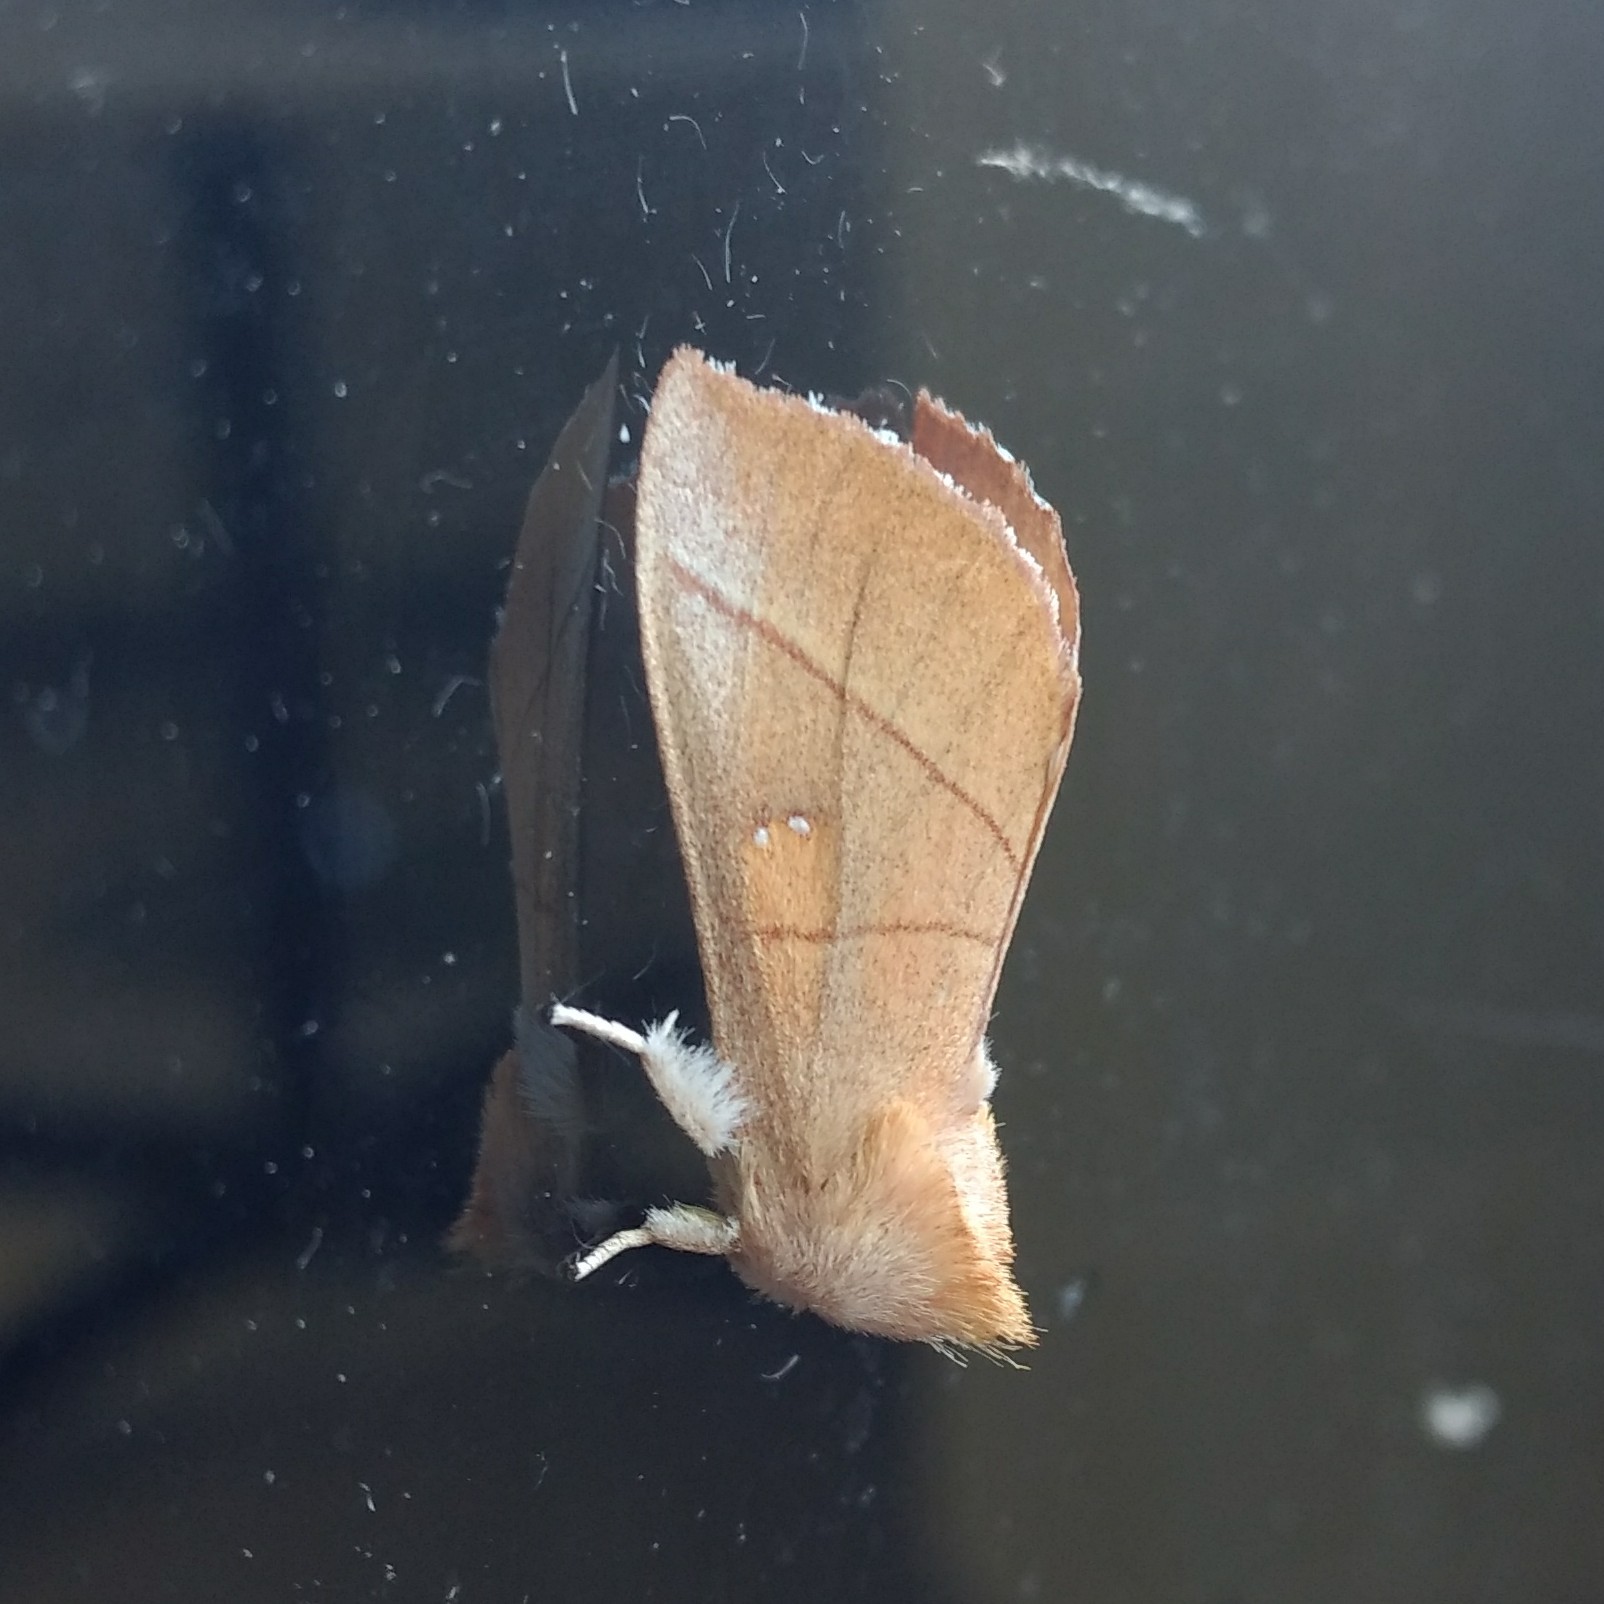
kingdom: Animalia
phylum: Arthropoda
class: Insecta
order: Lepidoptera
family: Notodontidae
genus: Nadata
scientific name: Nadata gibbosa
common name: White-dotted prominent
